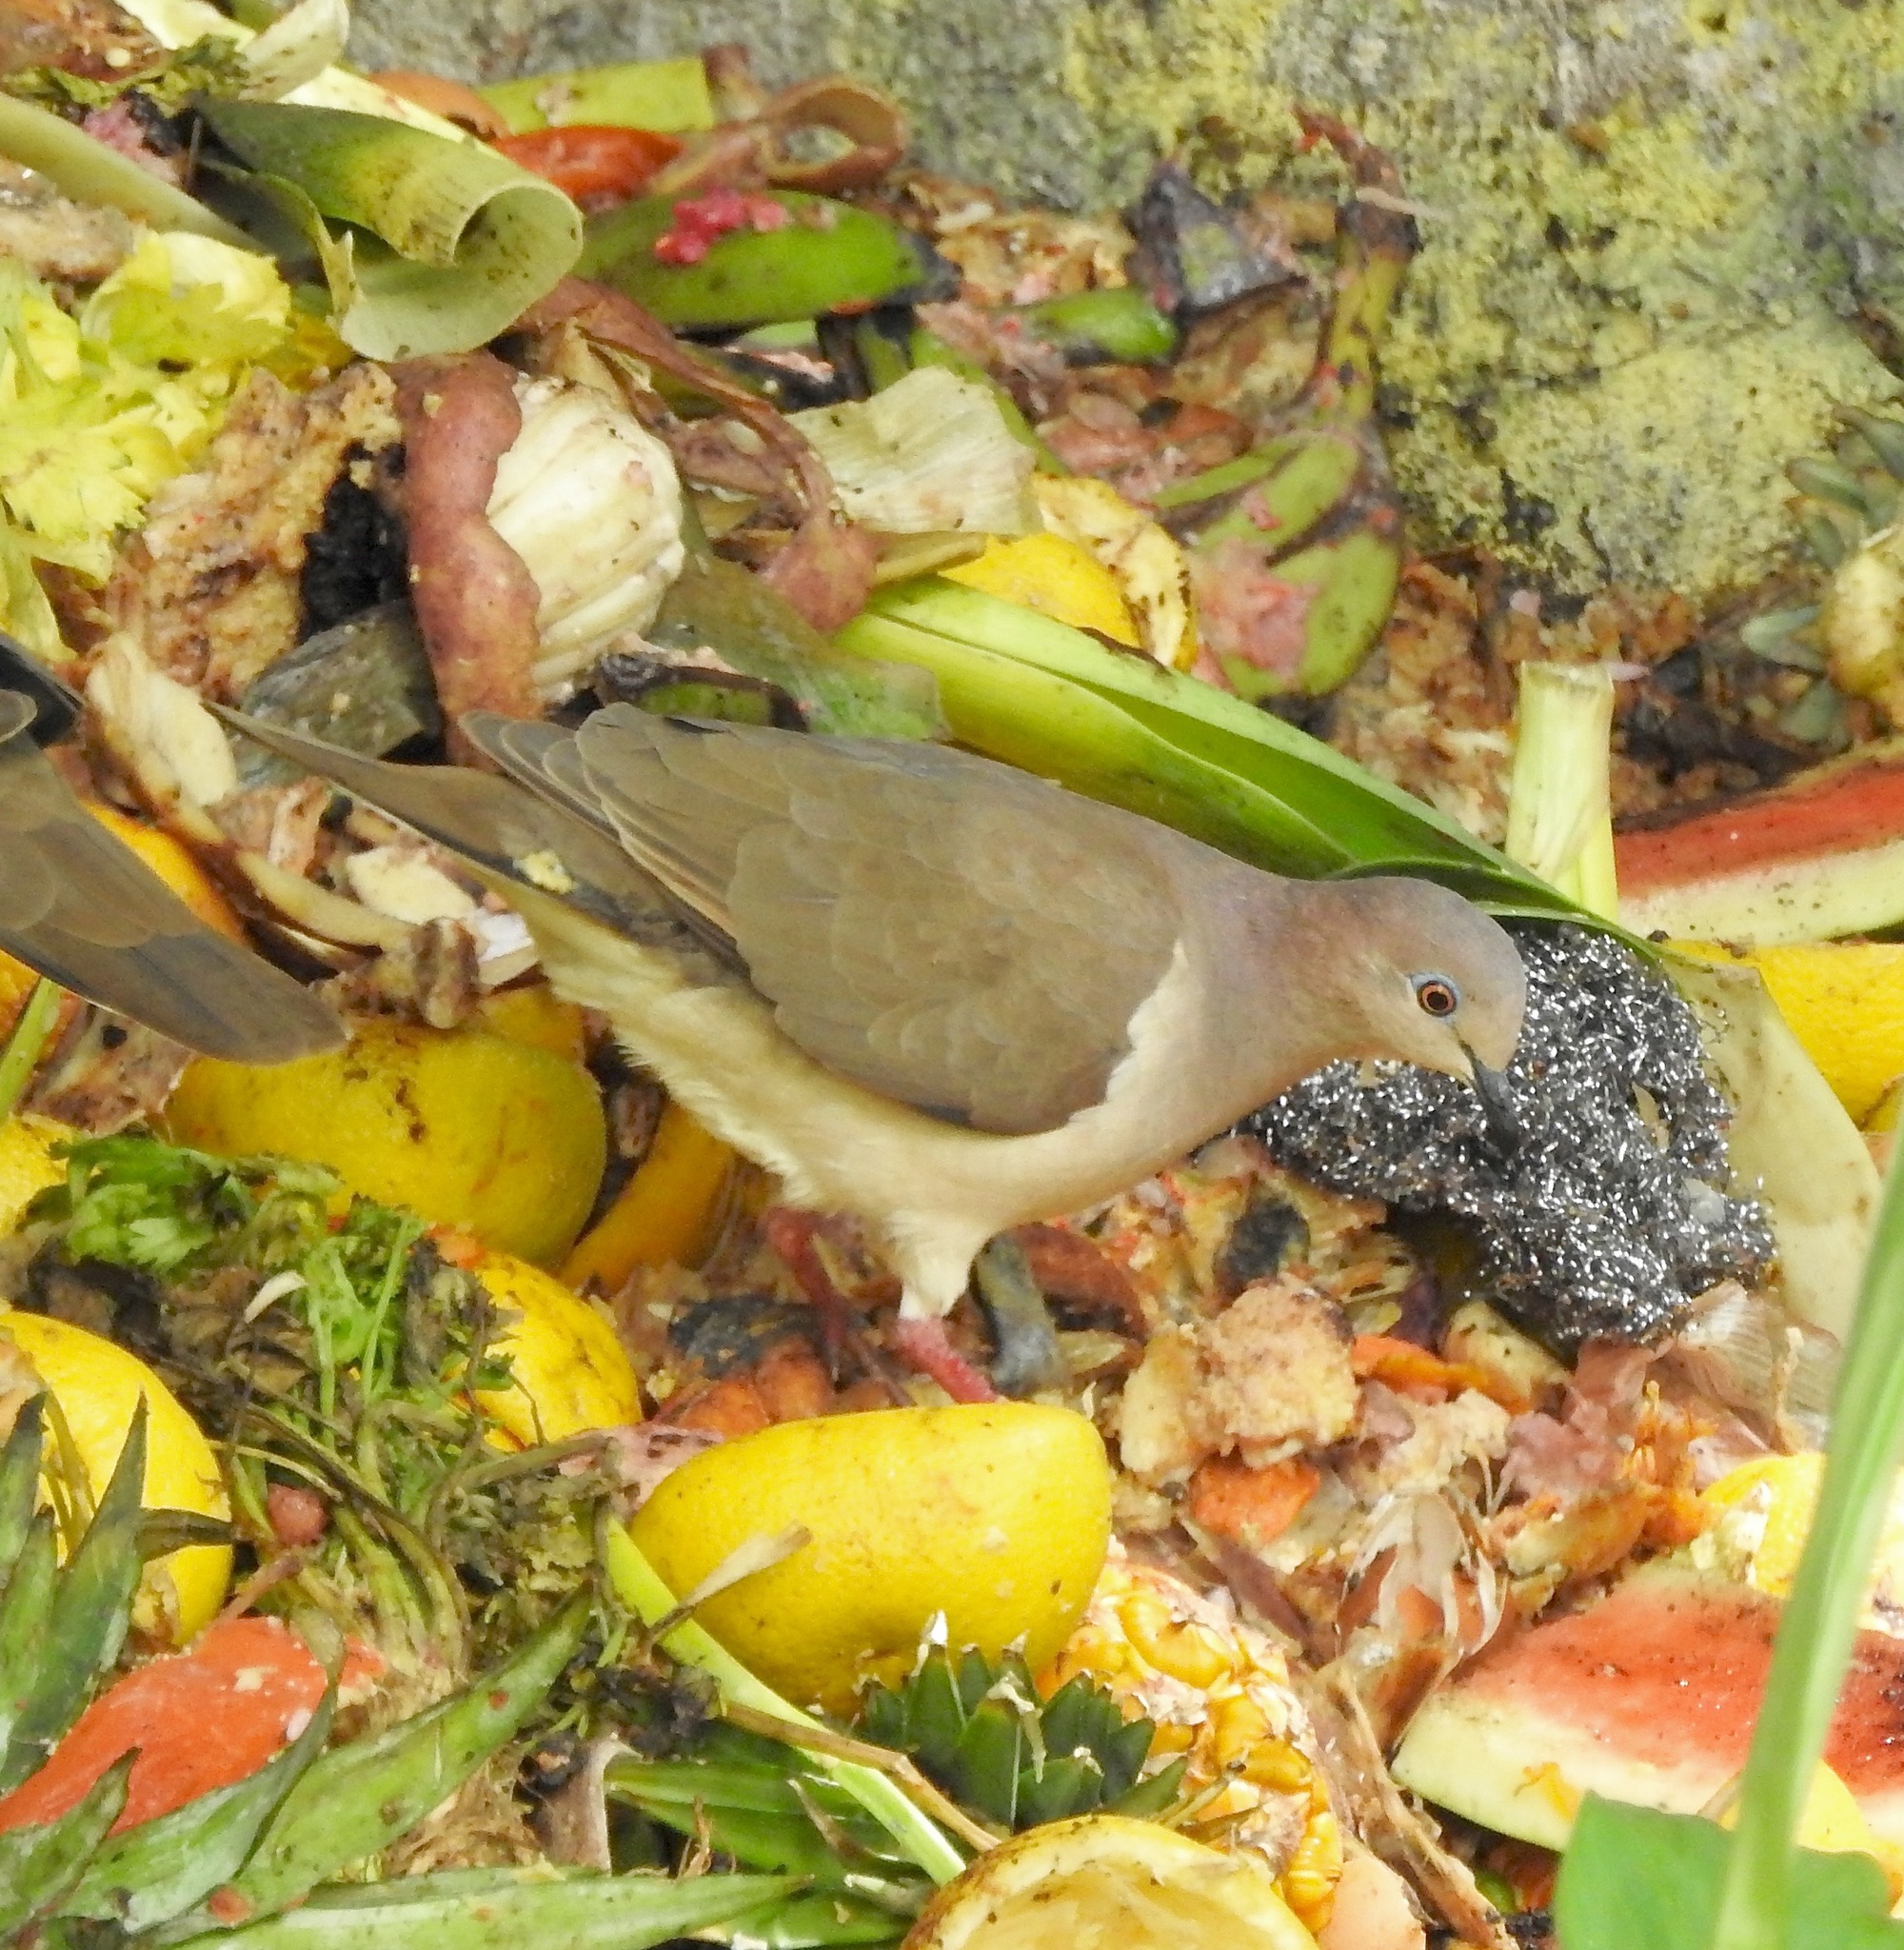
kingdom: Animalia
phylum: Chordata
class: Aves
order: Columbiformes
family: Columbidae
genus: Leptotila
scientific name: Leptotila verreauxi
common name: White-tipped dove
